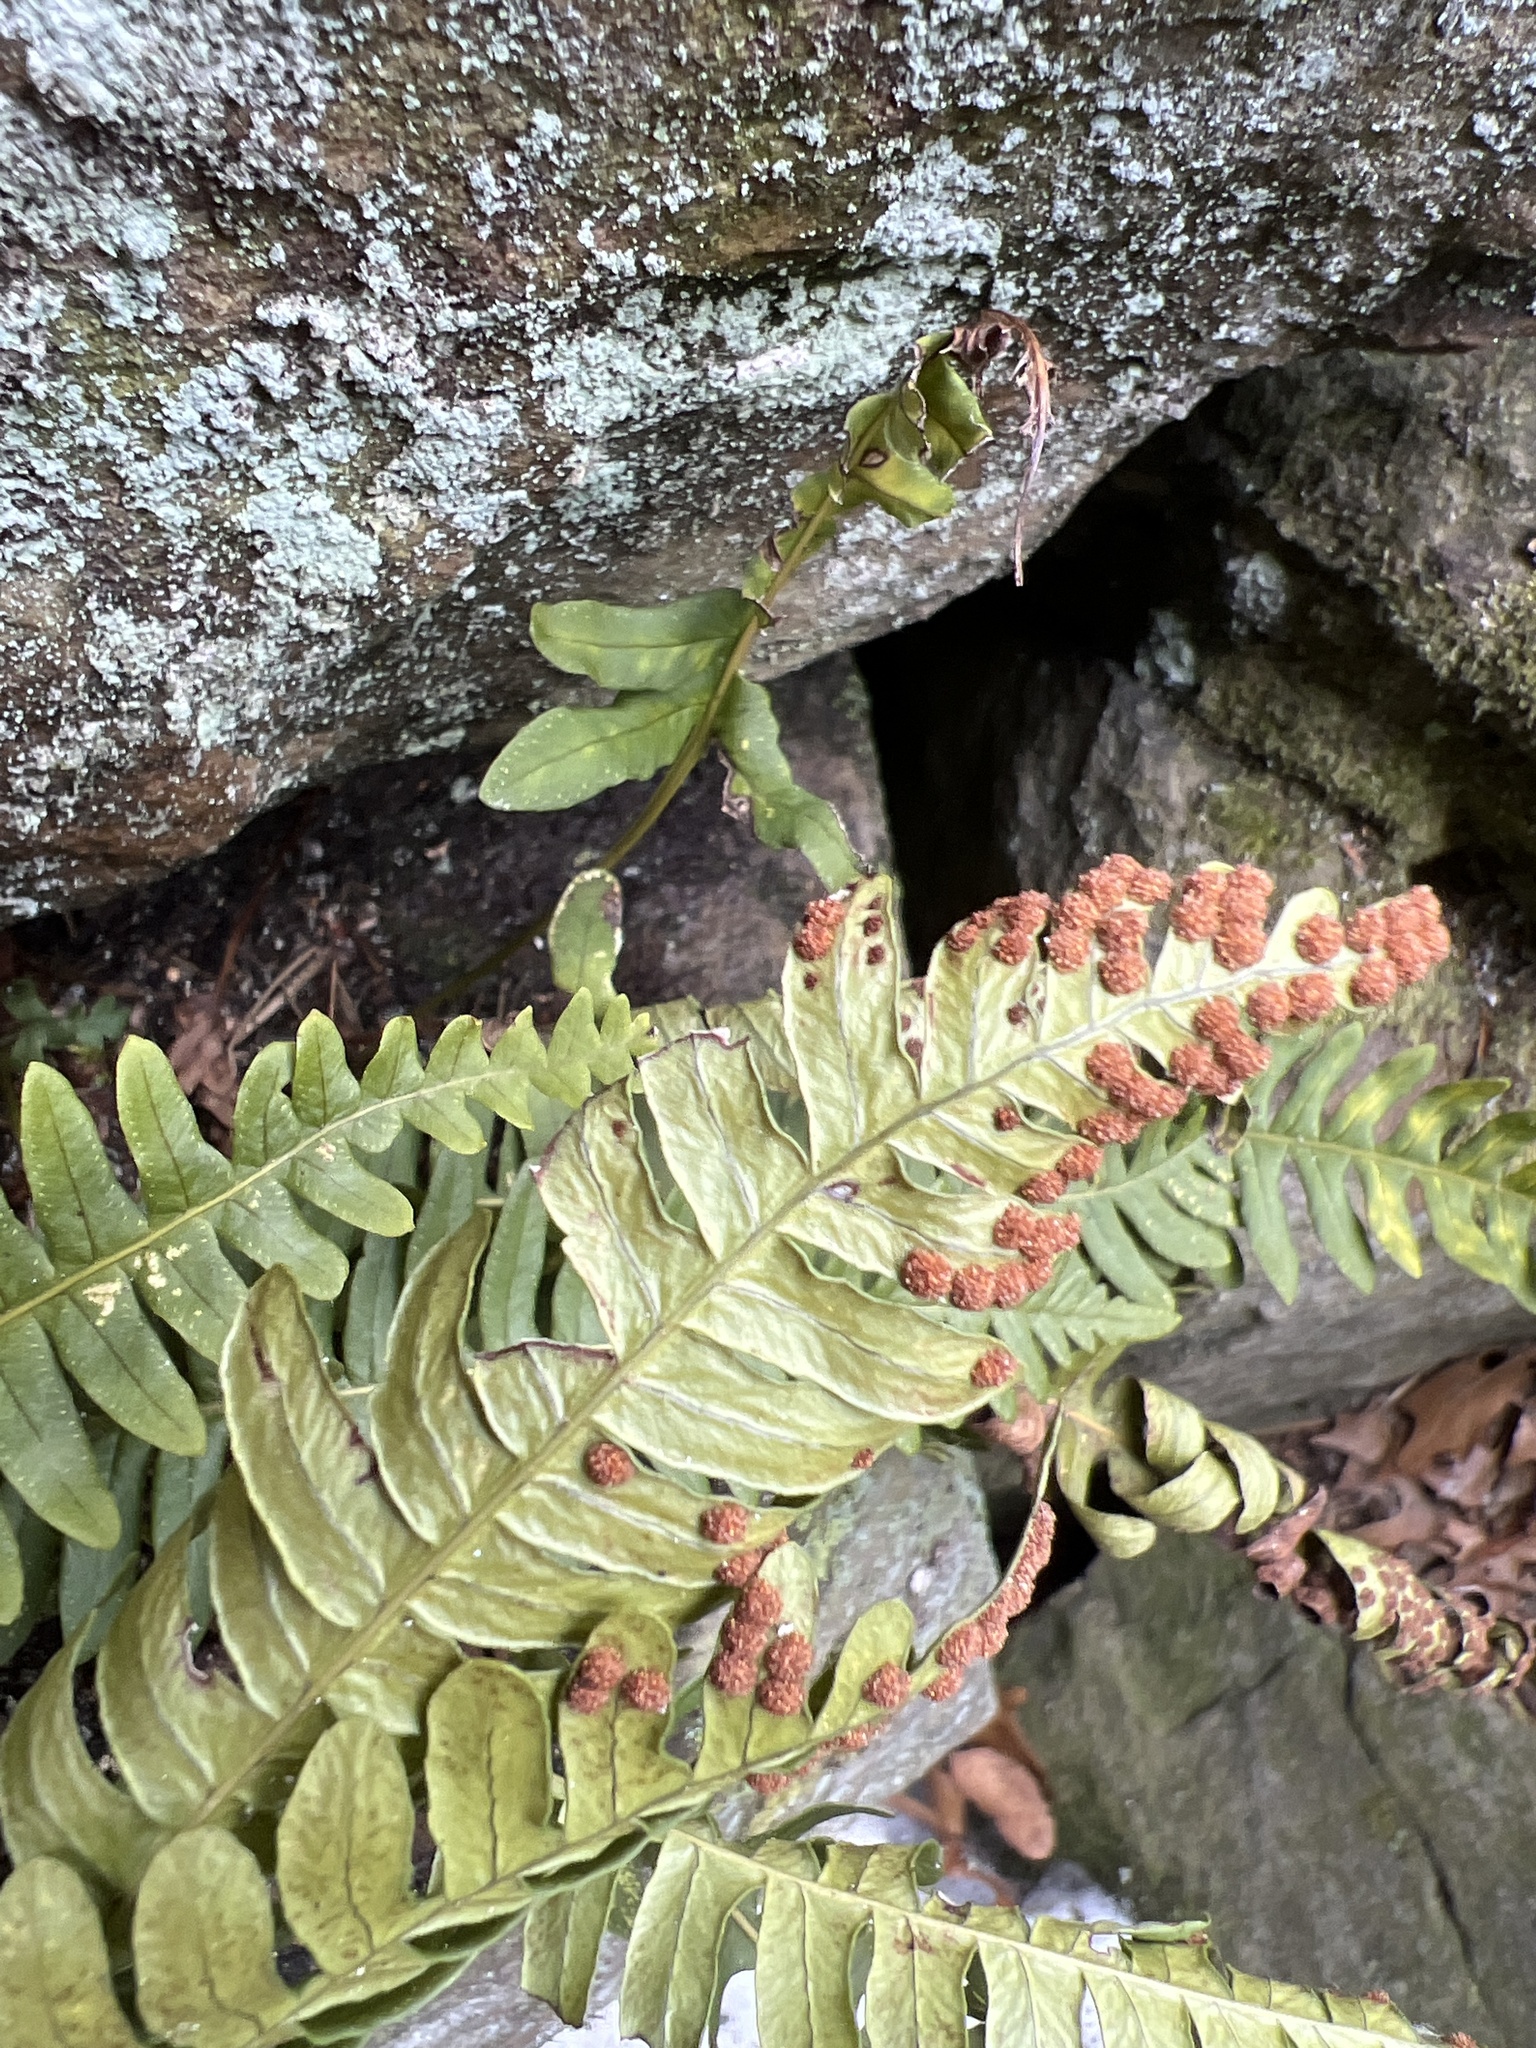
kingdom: Plantae
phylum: Tracheophyta
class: Polypodiopsida
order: Polypodiales
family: Polypodiaceae
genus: Polypodium
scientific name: Polypodium virginianum
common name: American wall fern
